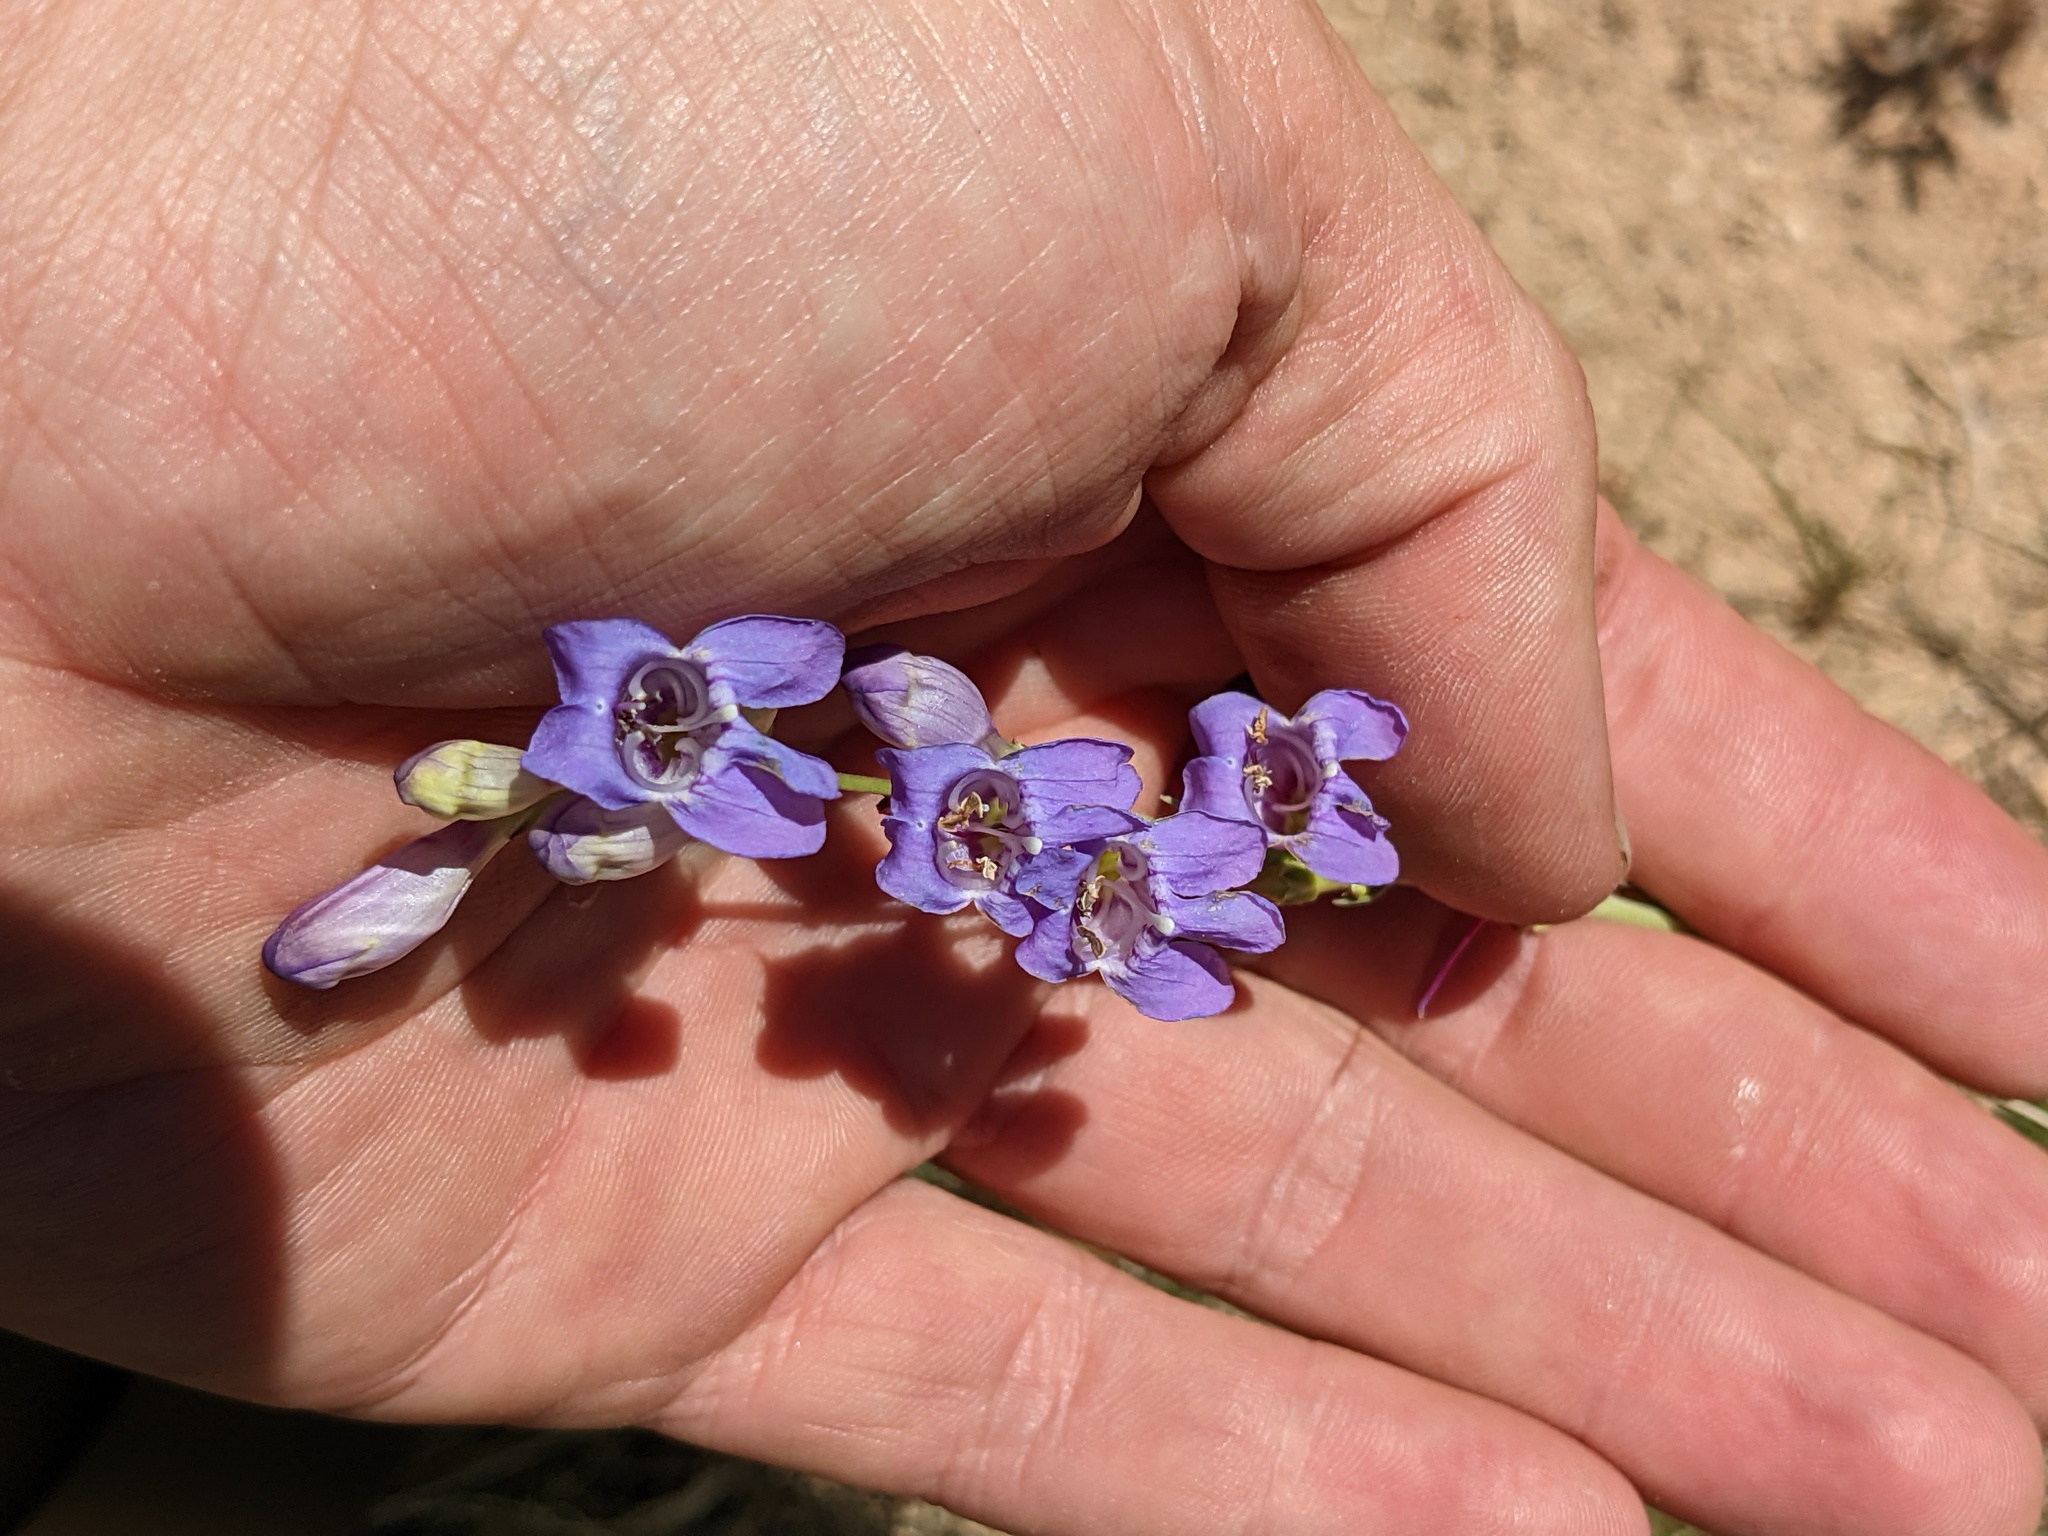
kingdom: Plantae
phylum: Tracheophyta
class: Magnoliopsida
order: Lamiales
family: Plantaginaceae
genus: Penstemon
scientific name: Penstemon pseudoputus
